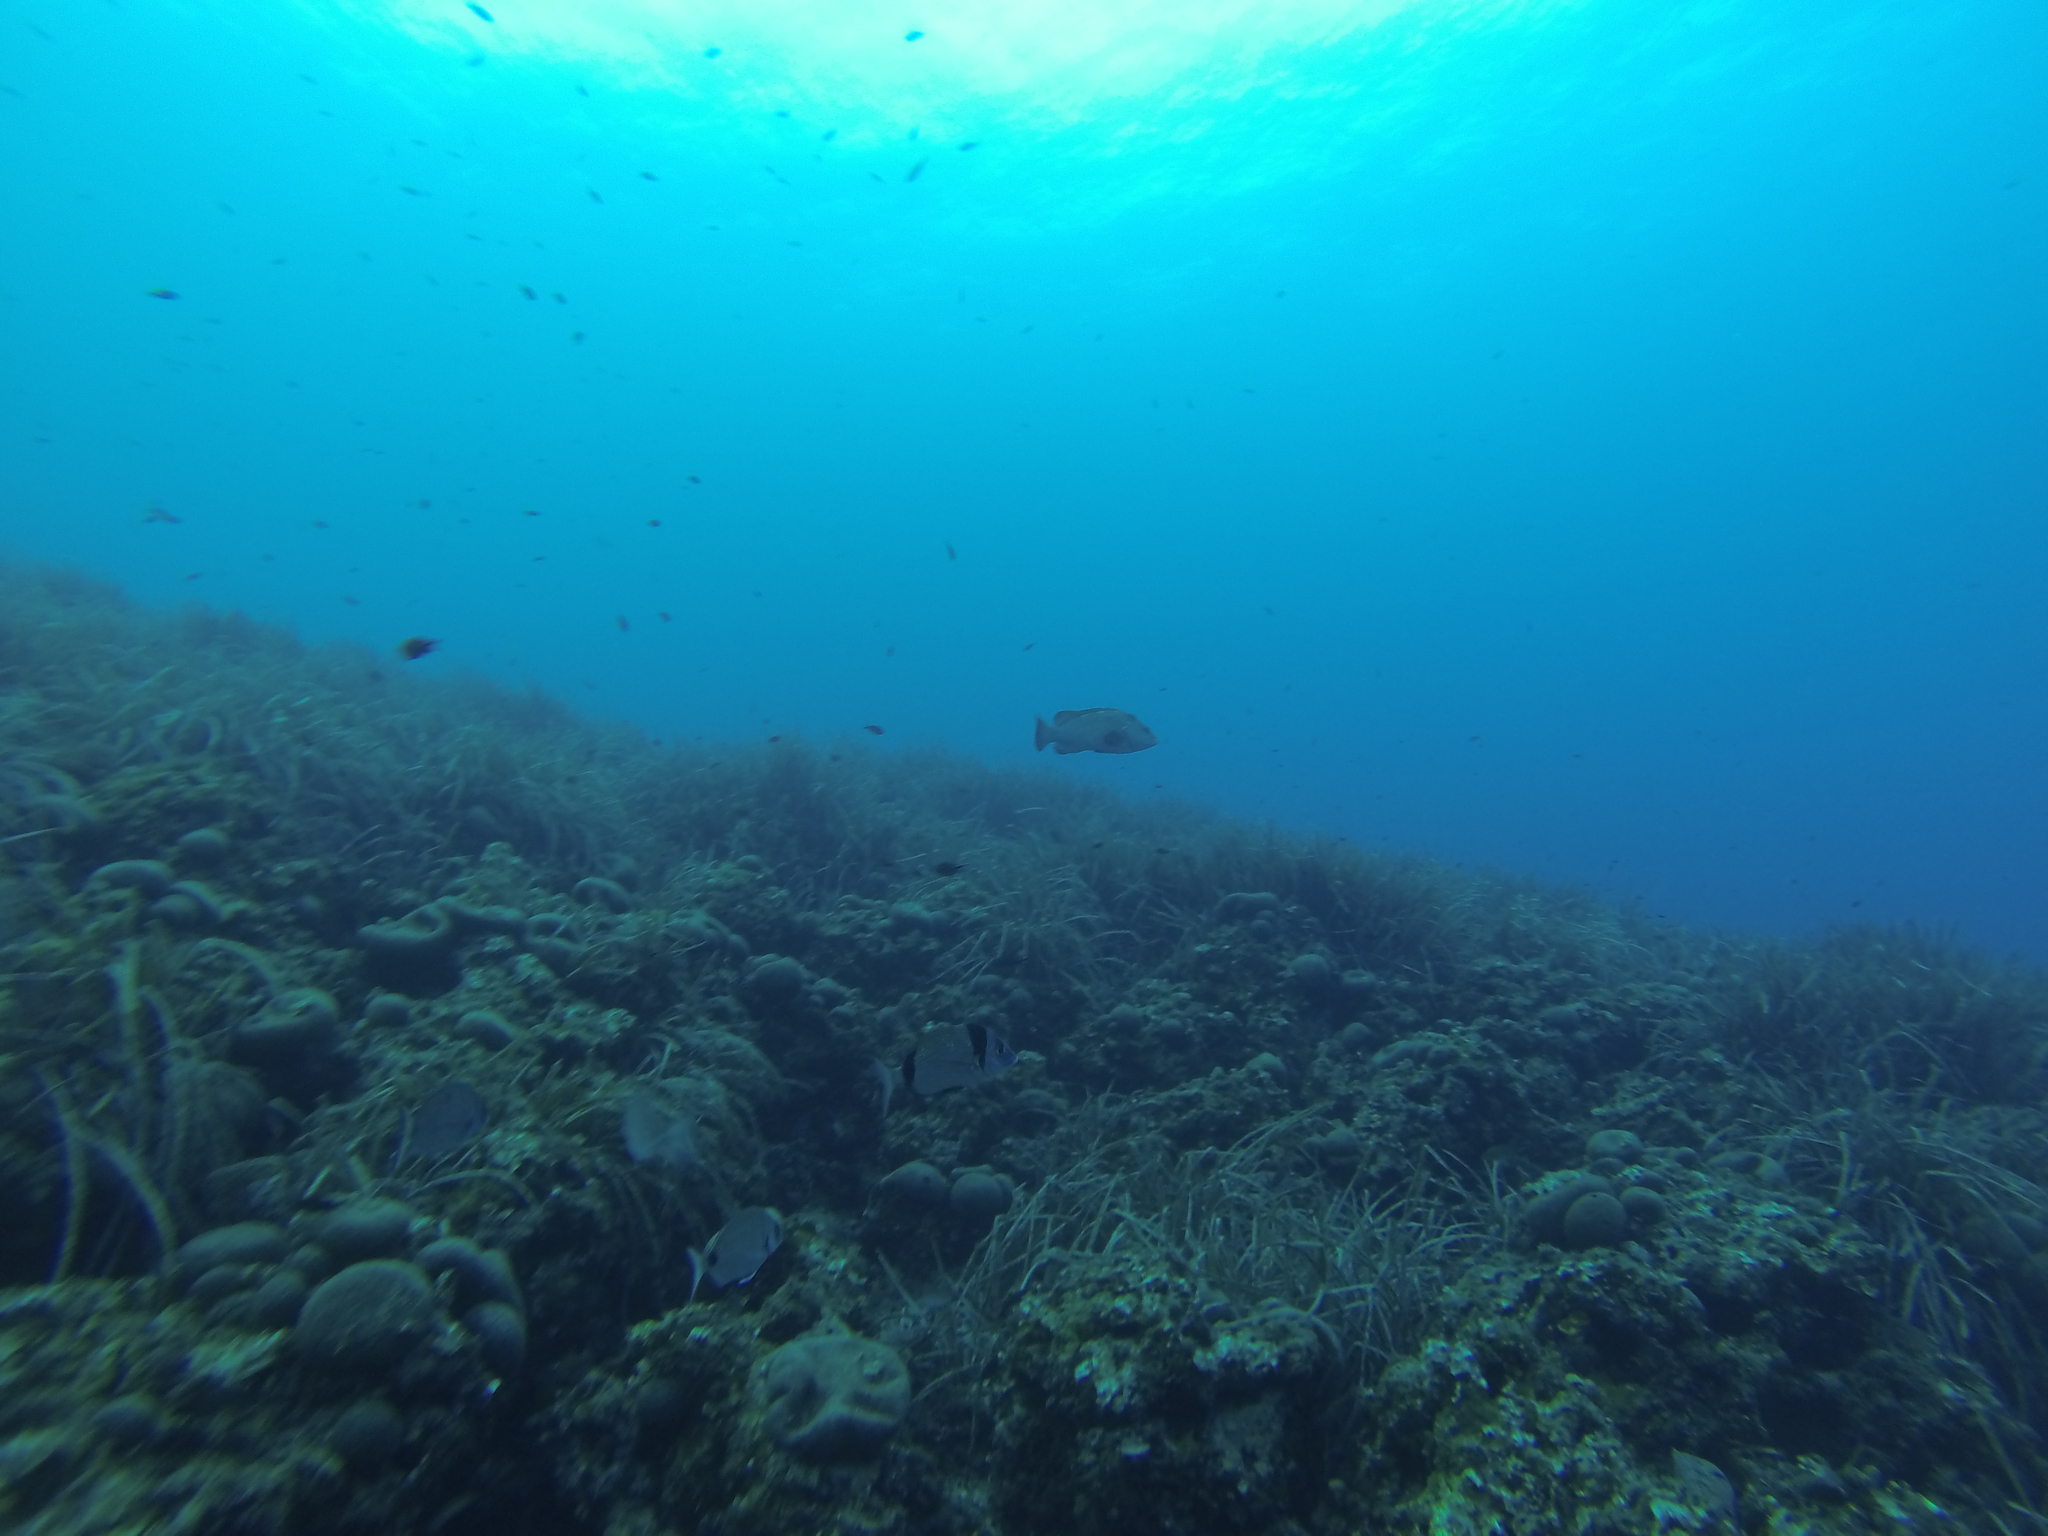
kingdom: Animalia
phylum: Chordata
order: Perciformes
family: Serranidae
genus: Epinephelus
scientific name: Epinephelus marginatus
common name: Dusky grouper
